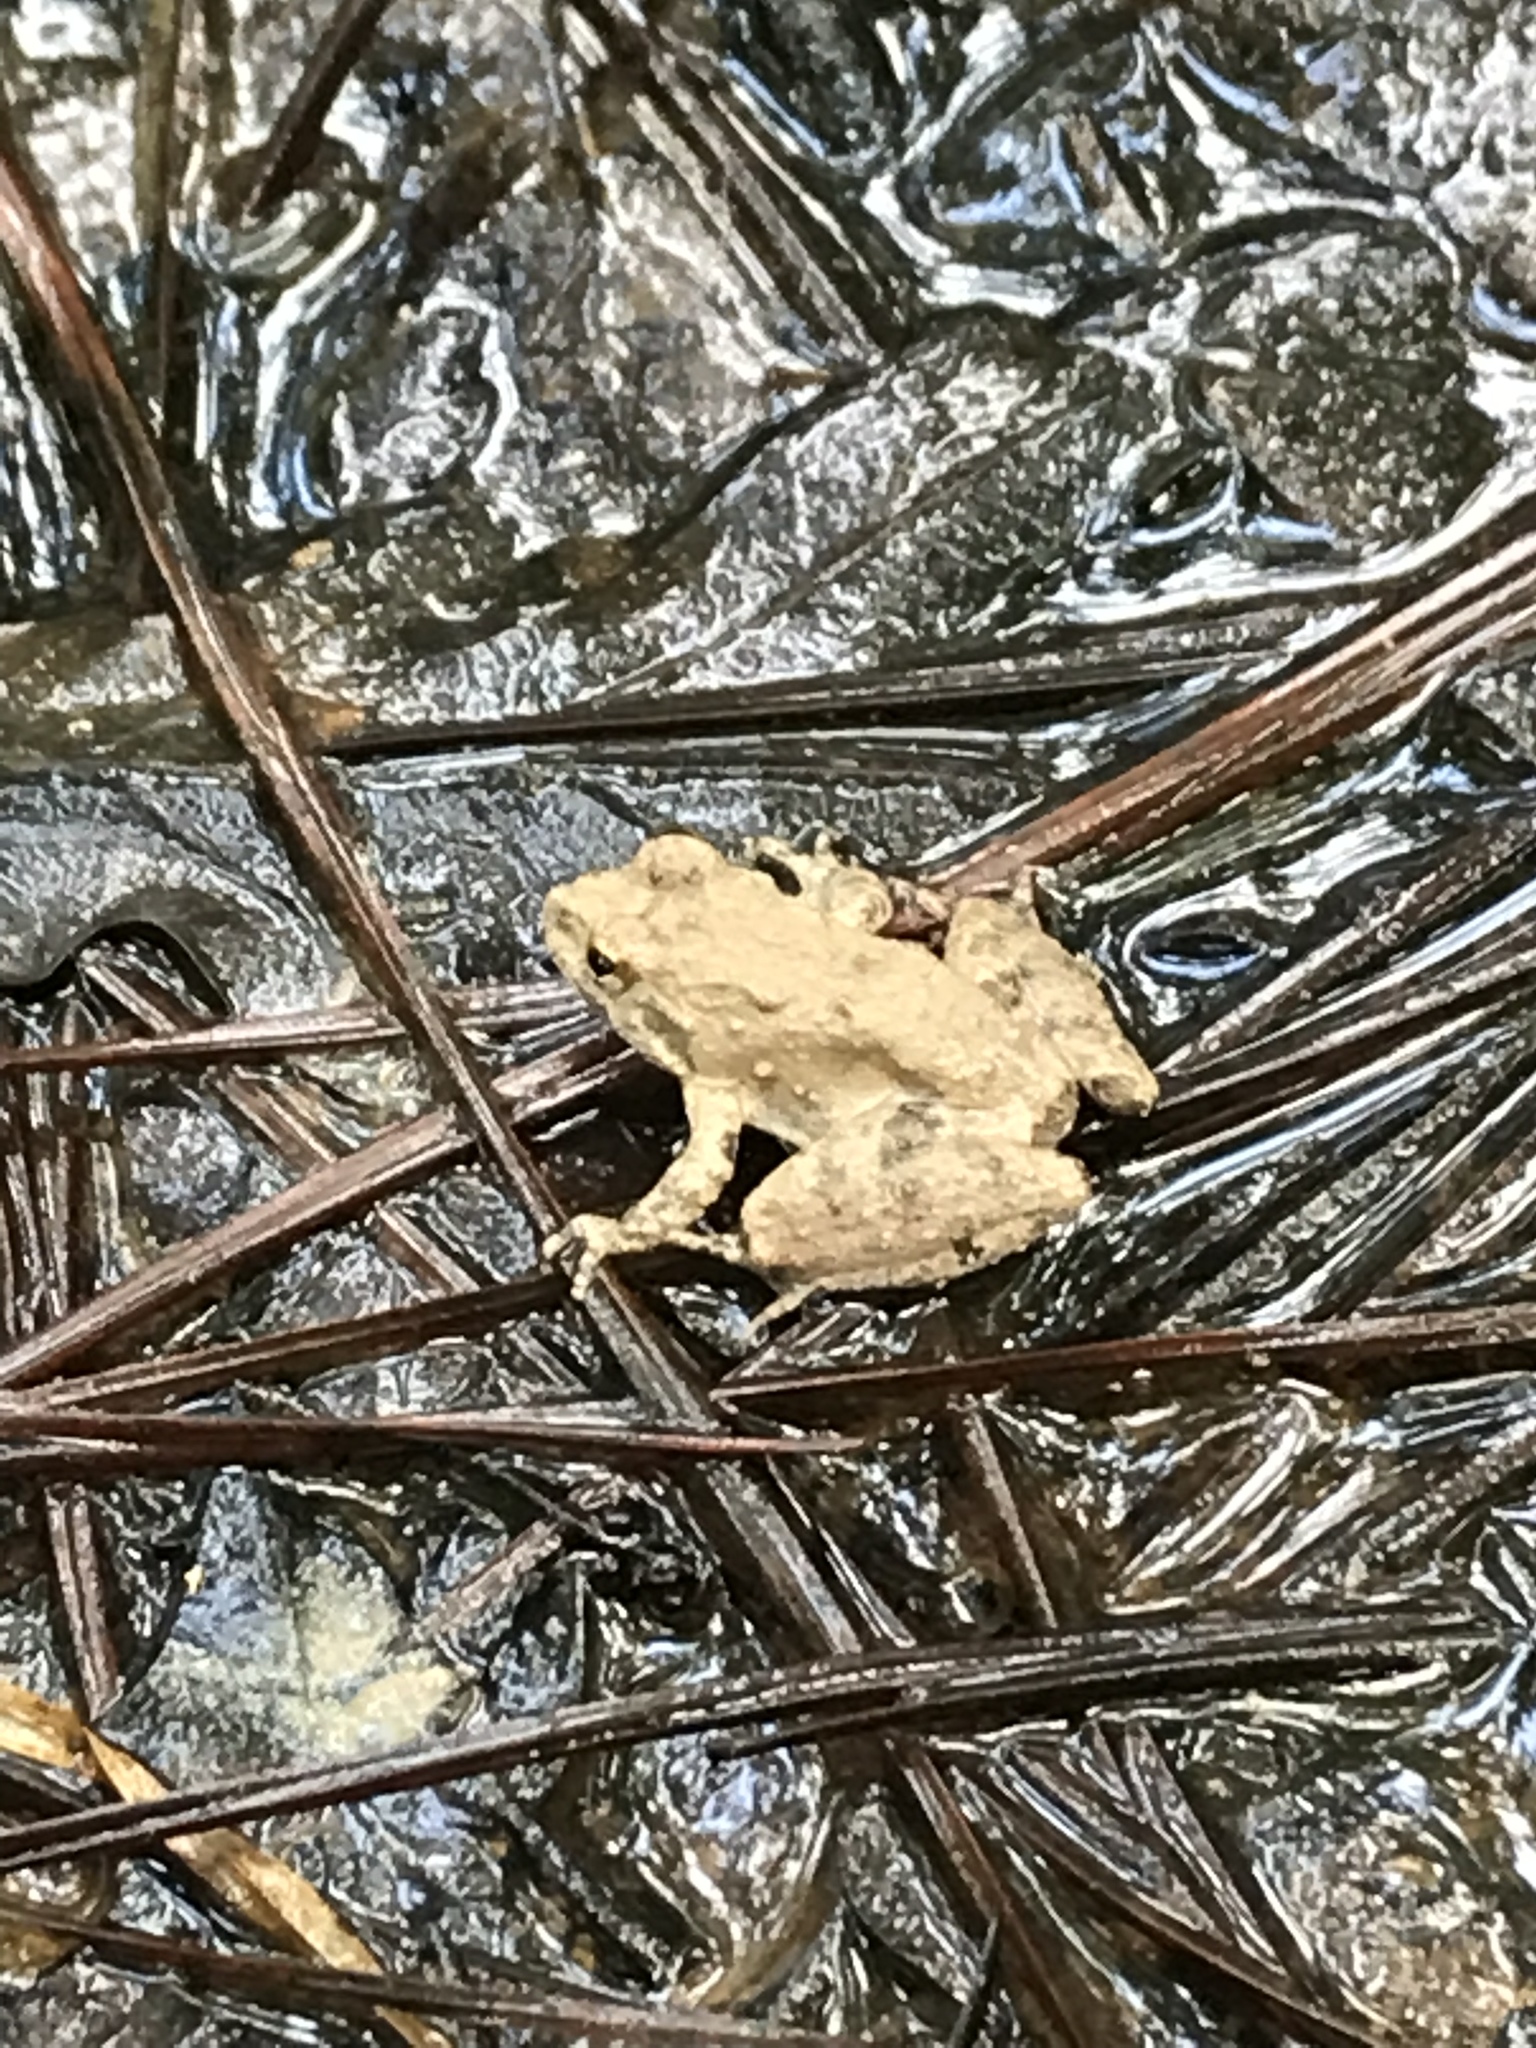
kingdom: Animalia
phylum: Chordata
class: Amphibia
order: Anura
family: Hylidae
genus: Acris
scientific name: Acris blanchardi
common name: Blanchard's cricket frog
